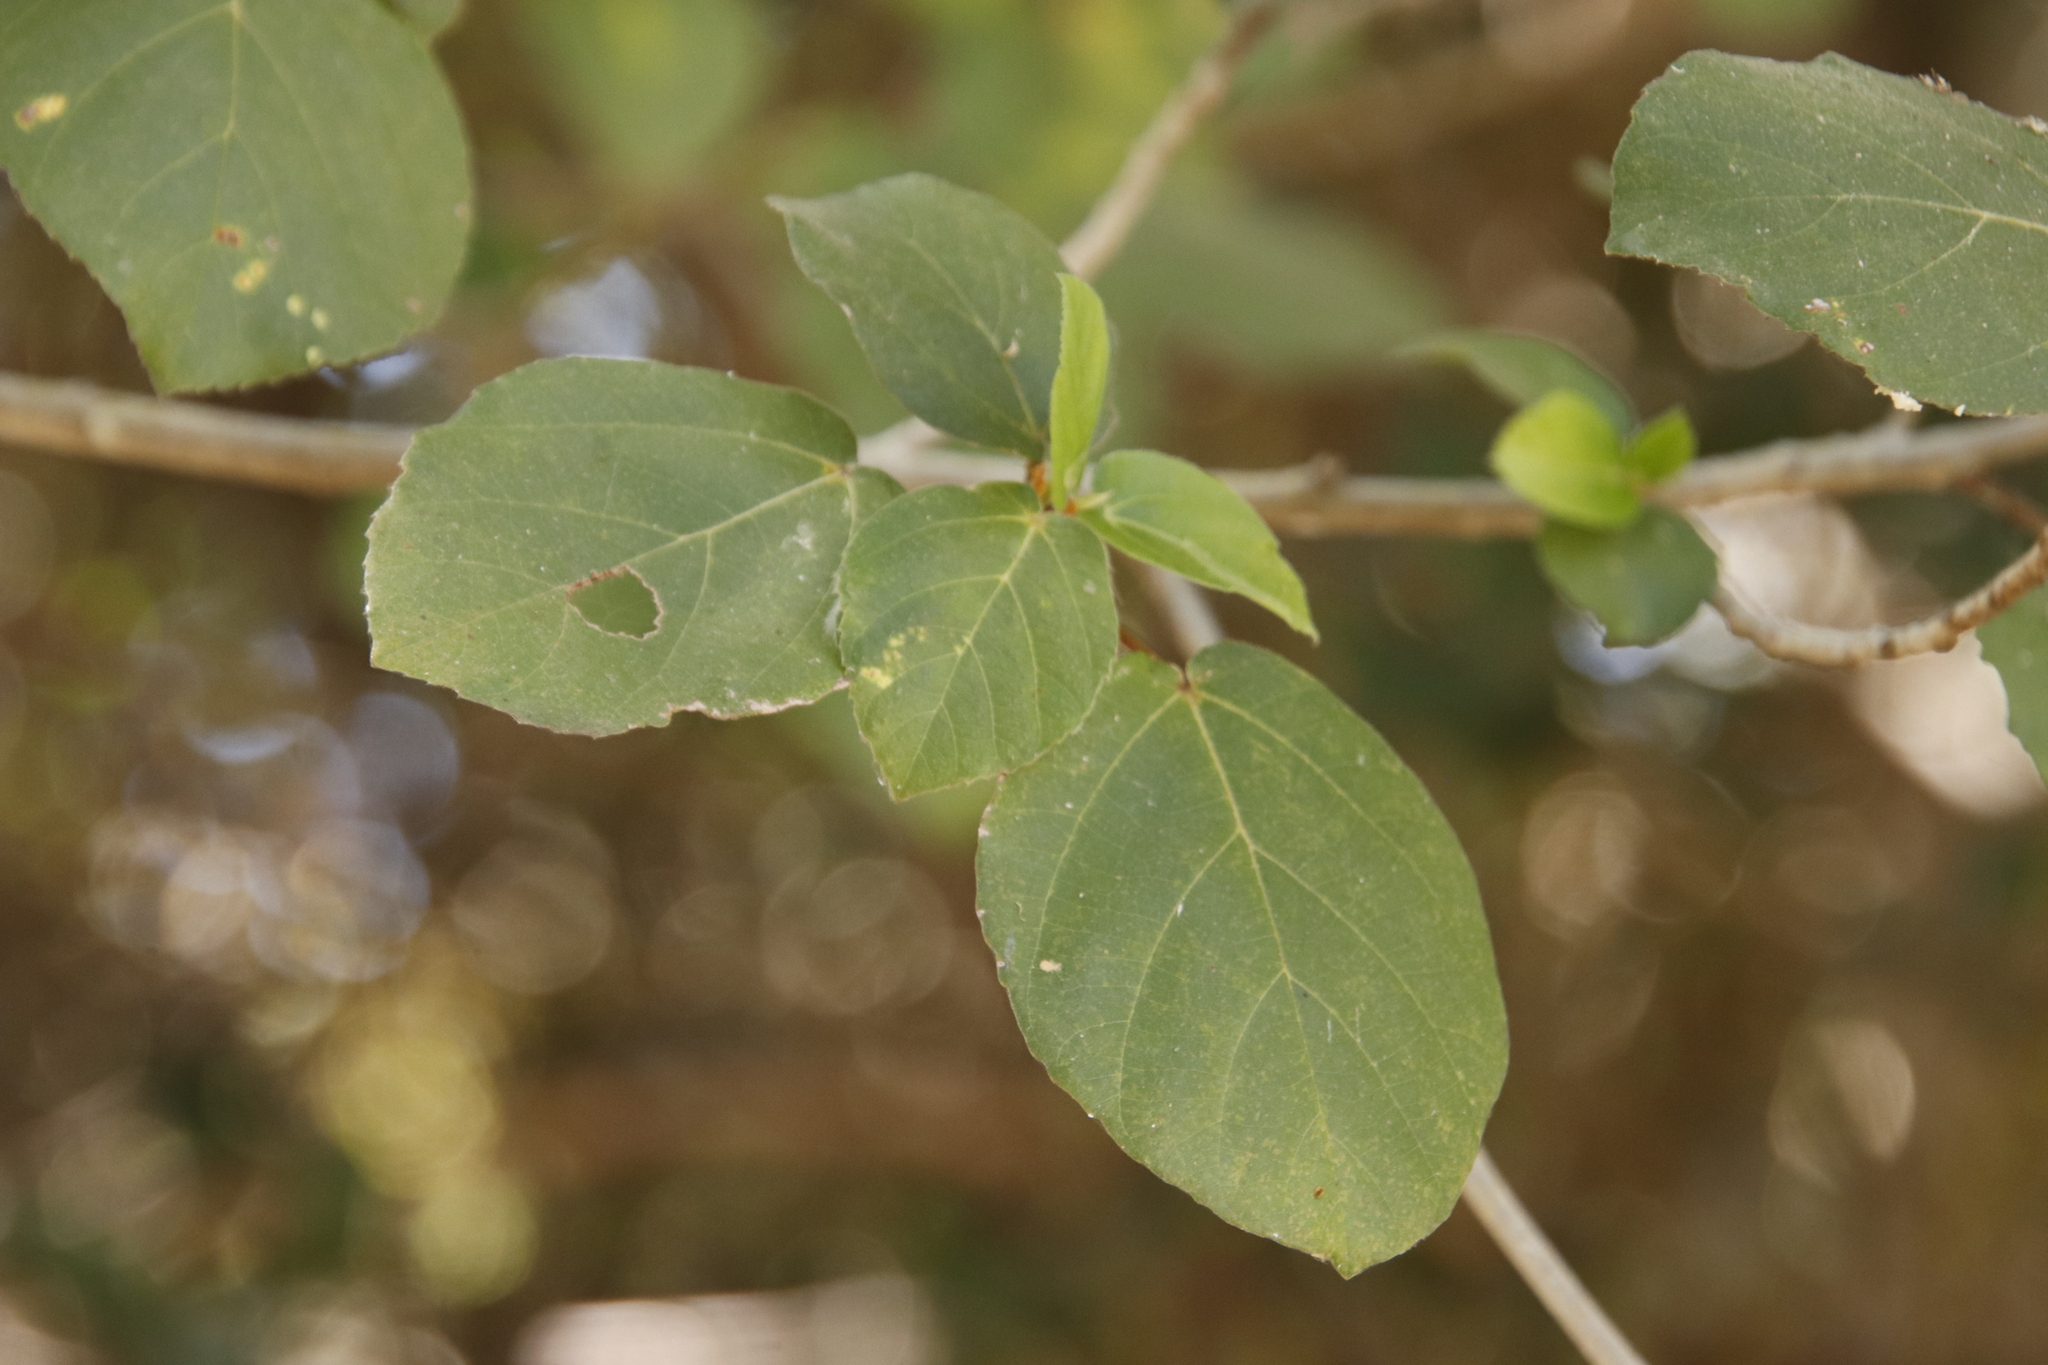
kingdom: Plantae
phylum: Tracheophyta
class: Magnoliopsida
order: Rosales
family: Moraceae
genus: Ficus
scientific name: Ficus sycomorus
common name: Sycomore
